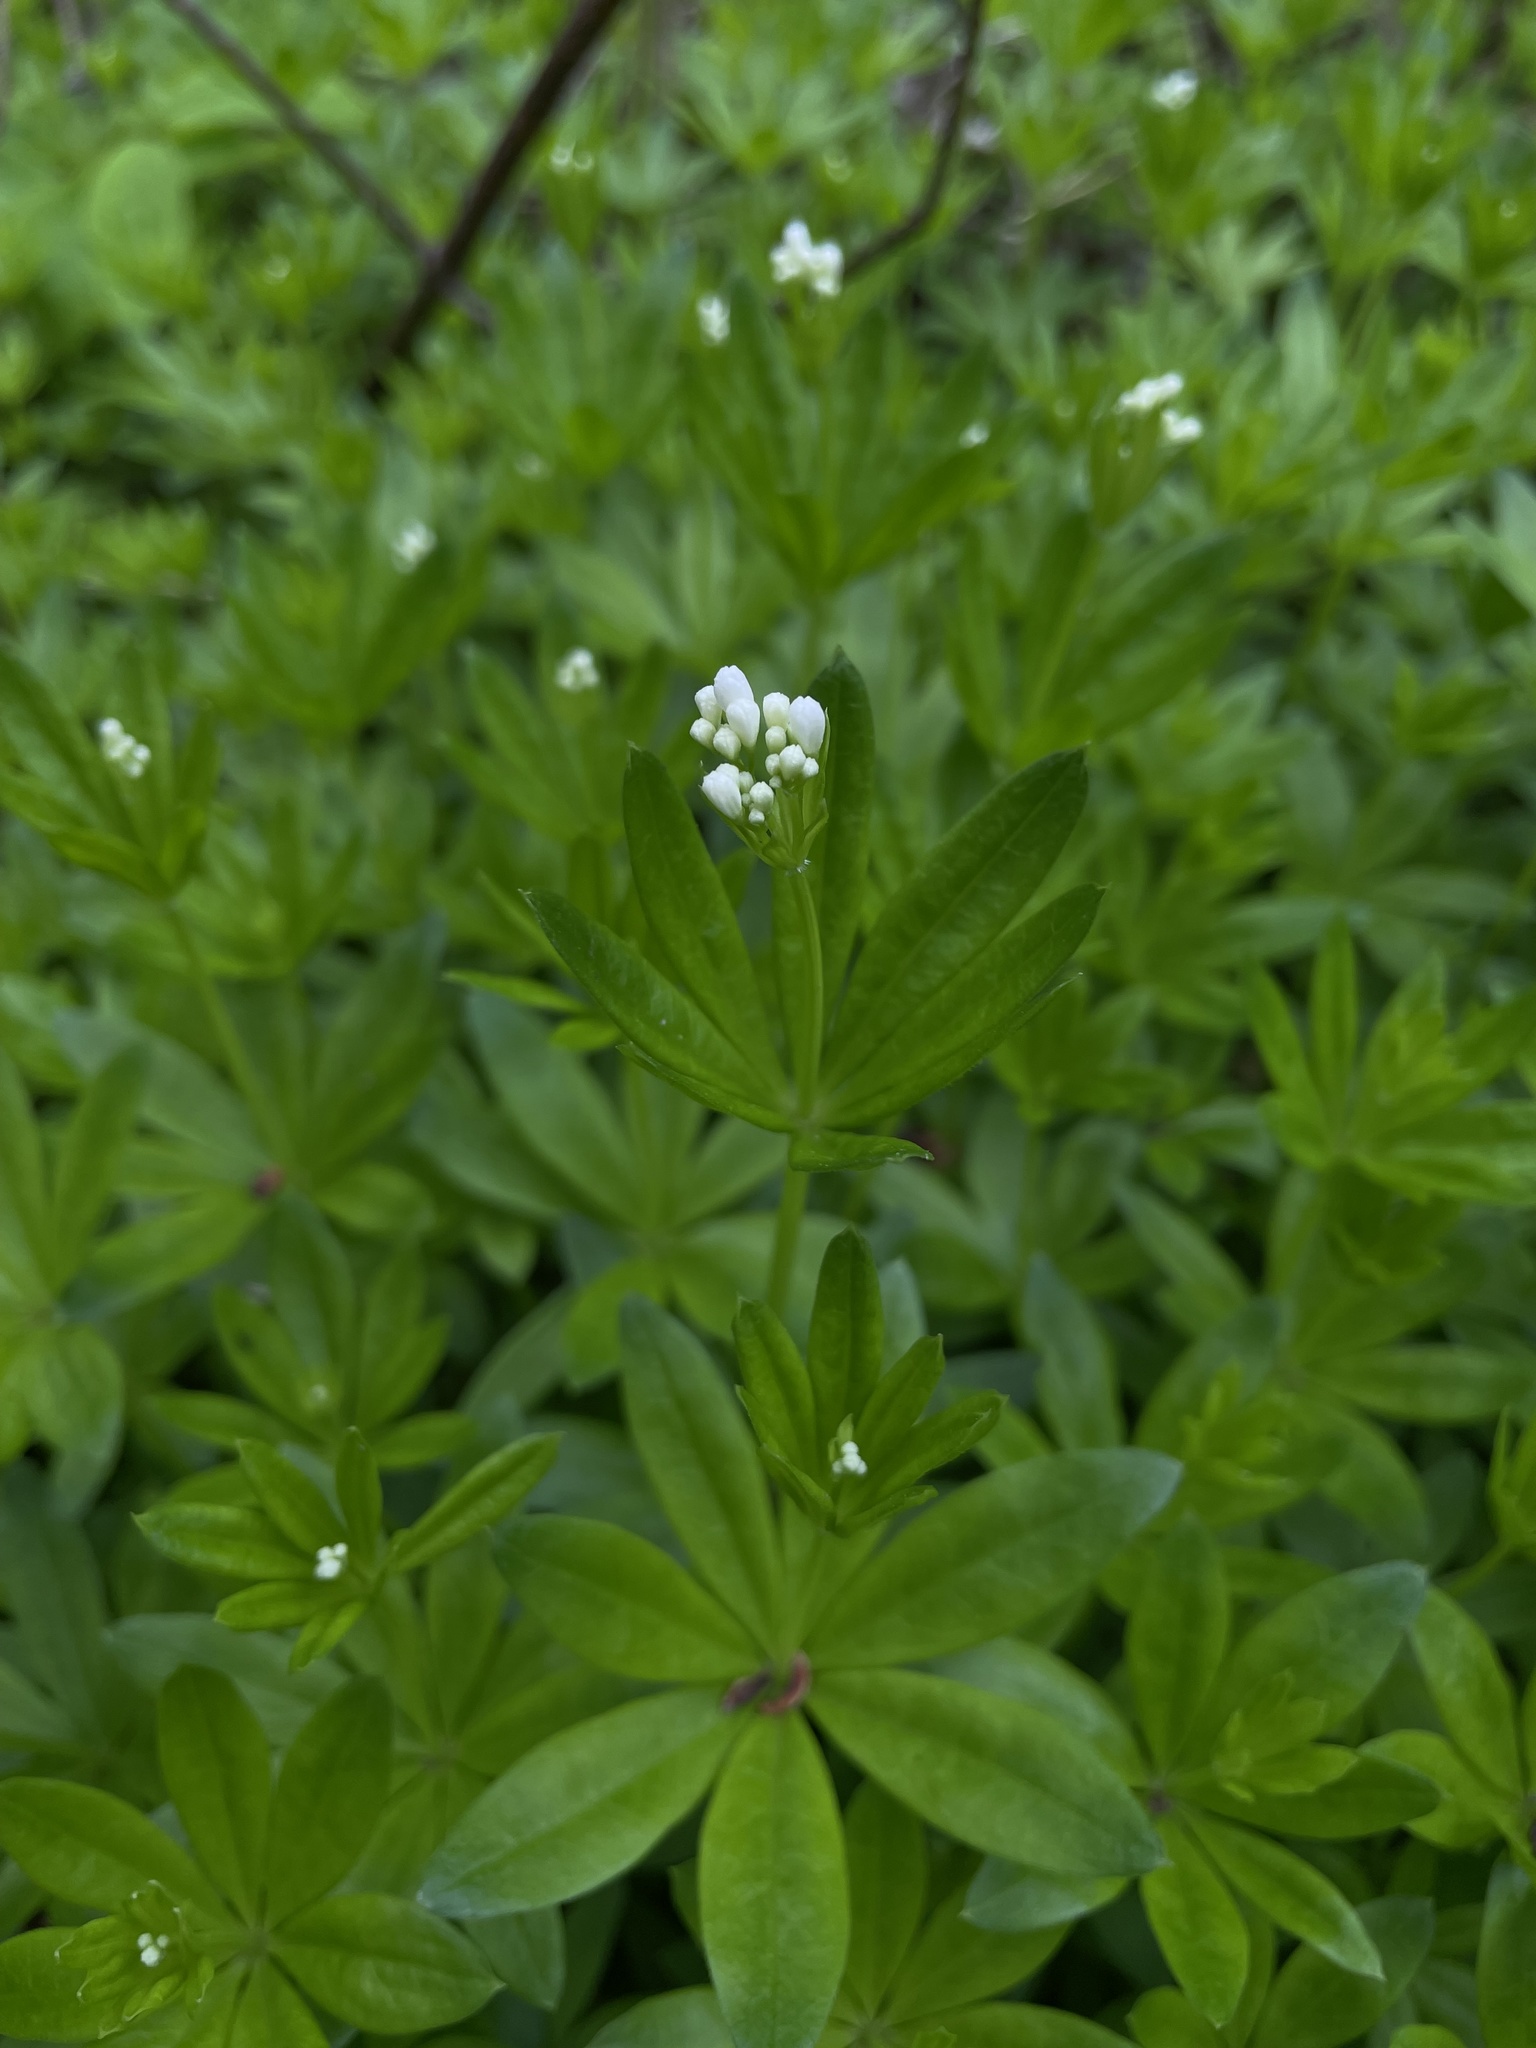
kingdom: Plantae
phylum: Tracheophyta
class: Magnoliopsida
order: Gentianales
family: Rubiaceae
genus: Galium
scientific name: Galium odoratum
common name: Sweet woodruff
